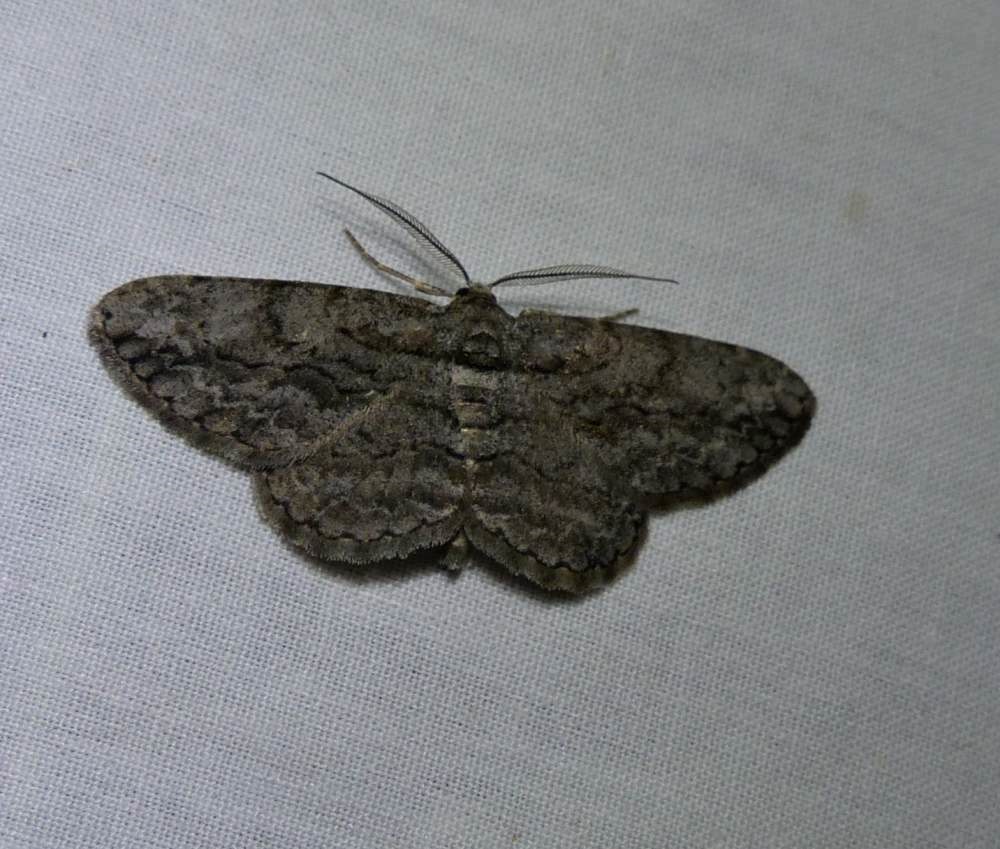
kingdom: Animalia
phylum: Arthropoda
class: Insecta
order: Lepidoptera
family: Geometridae
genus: Anavitrinella
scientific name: Anavitrinella pampinaria
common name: Common gray
